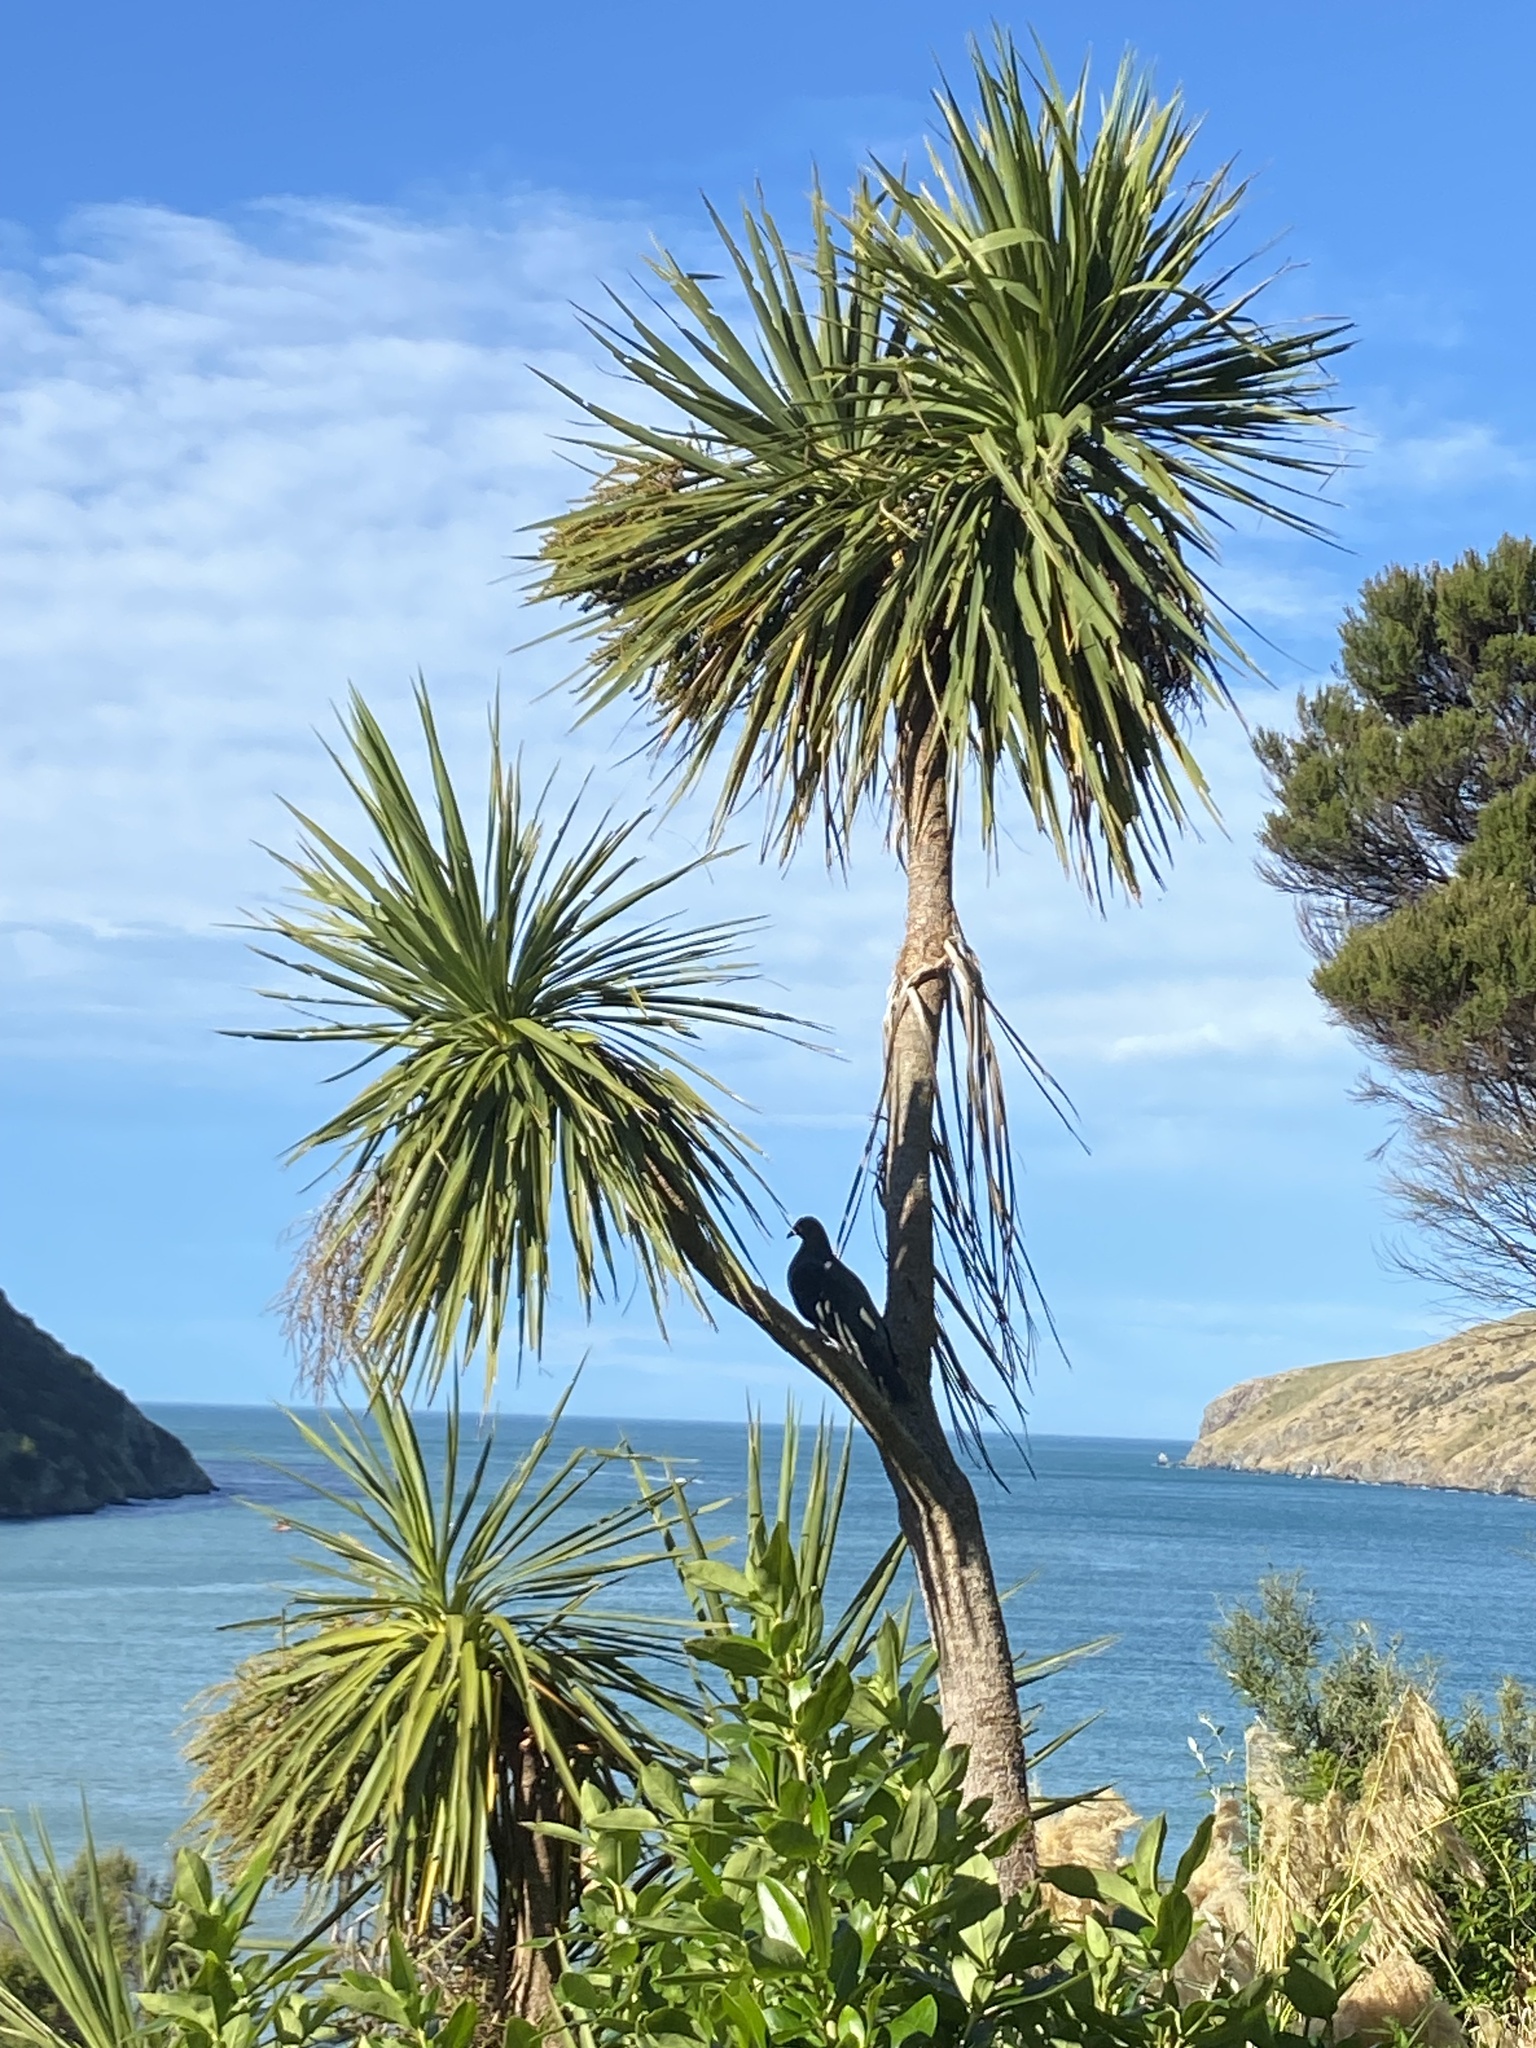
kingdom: Animalia
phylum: Chordata
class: Aves
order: Columbiformes
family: Columbidae
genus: Hemiphaga
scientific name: Hemiphaga novaeseelandiae
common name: New zealand pigeon
